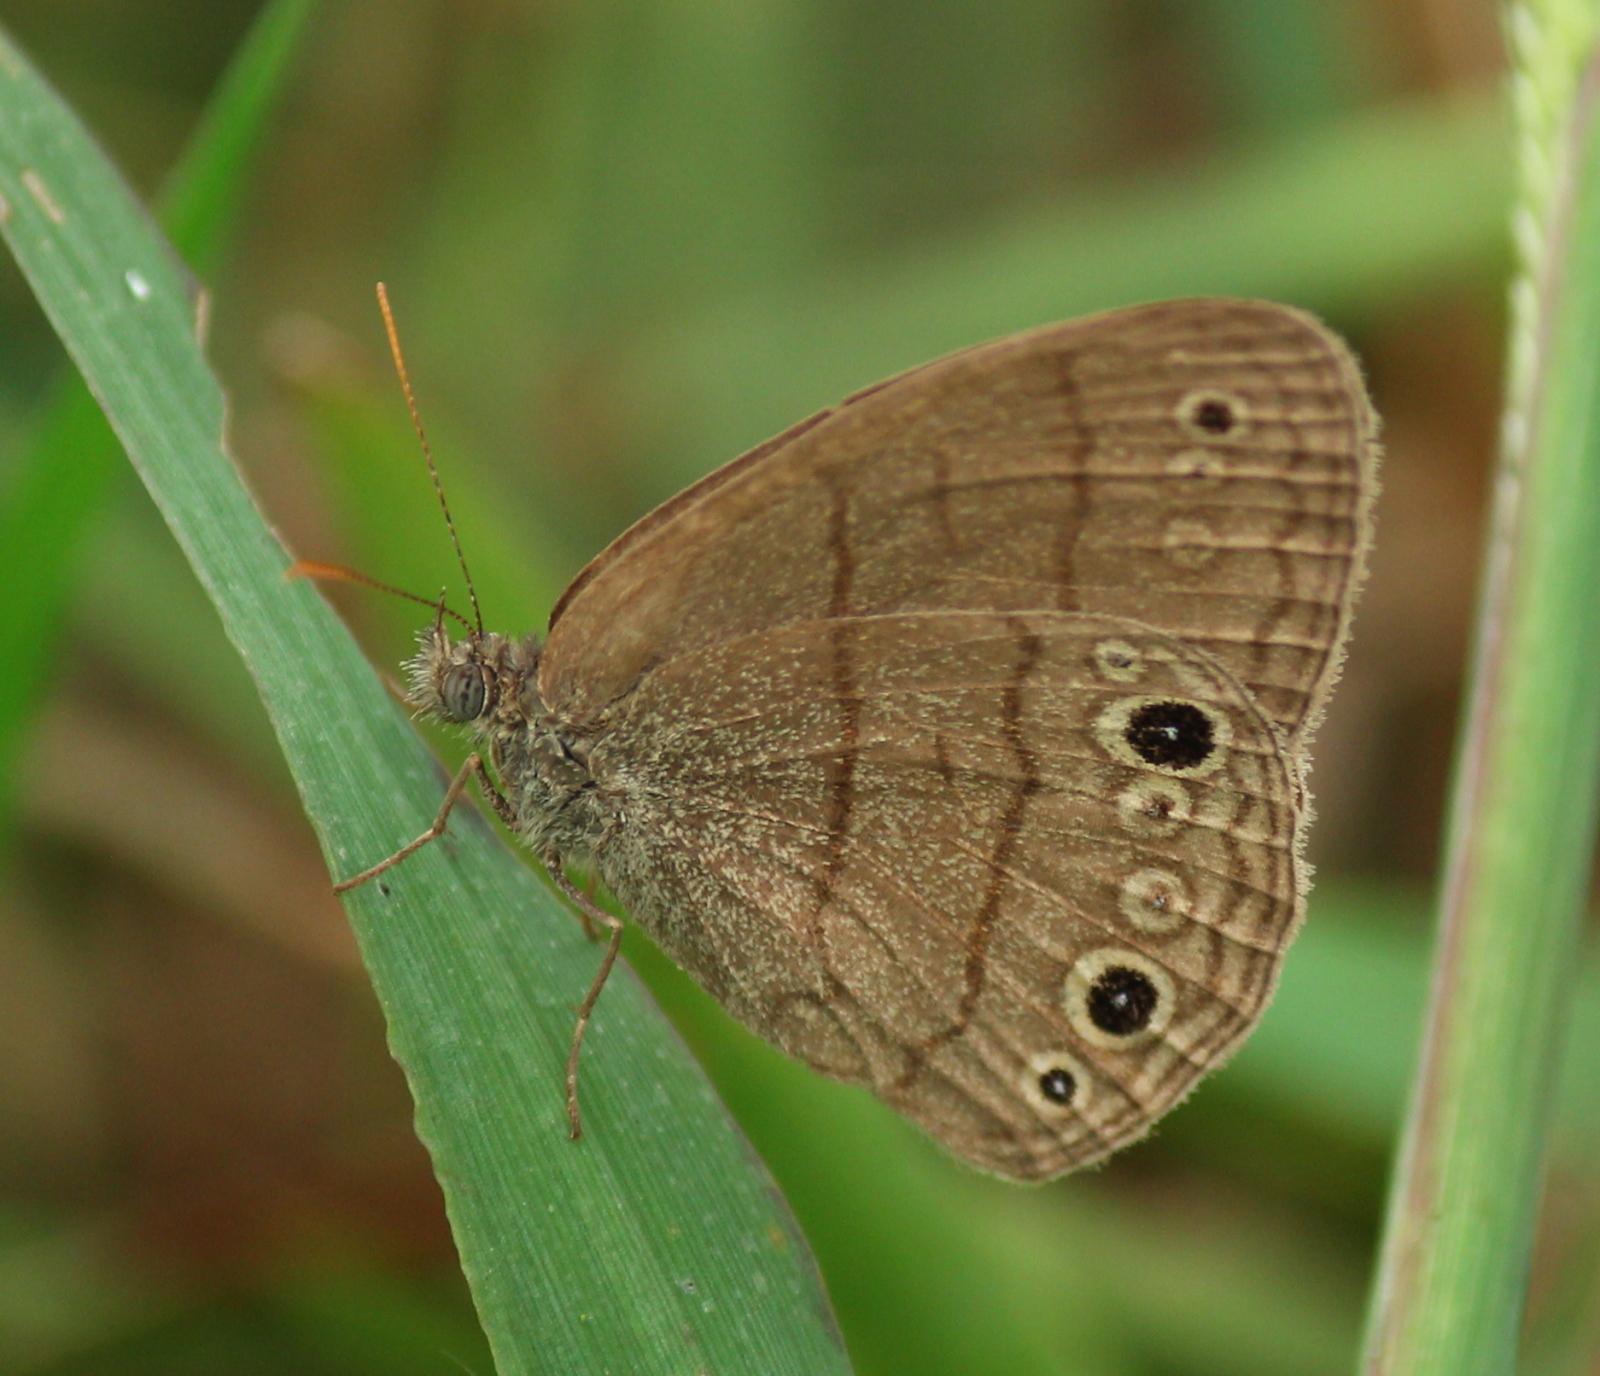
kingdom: Animalia
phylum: Arthropoda
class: Insecta
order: Lepidoptera
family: Nymphalidae
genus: Hermeuptychia
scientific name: Hermeuptychia hermes
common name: Hermes satyr
